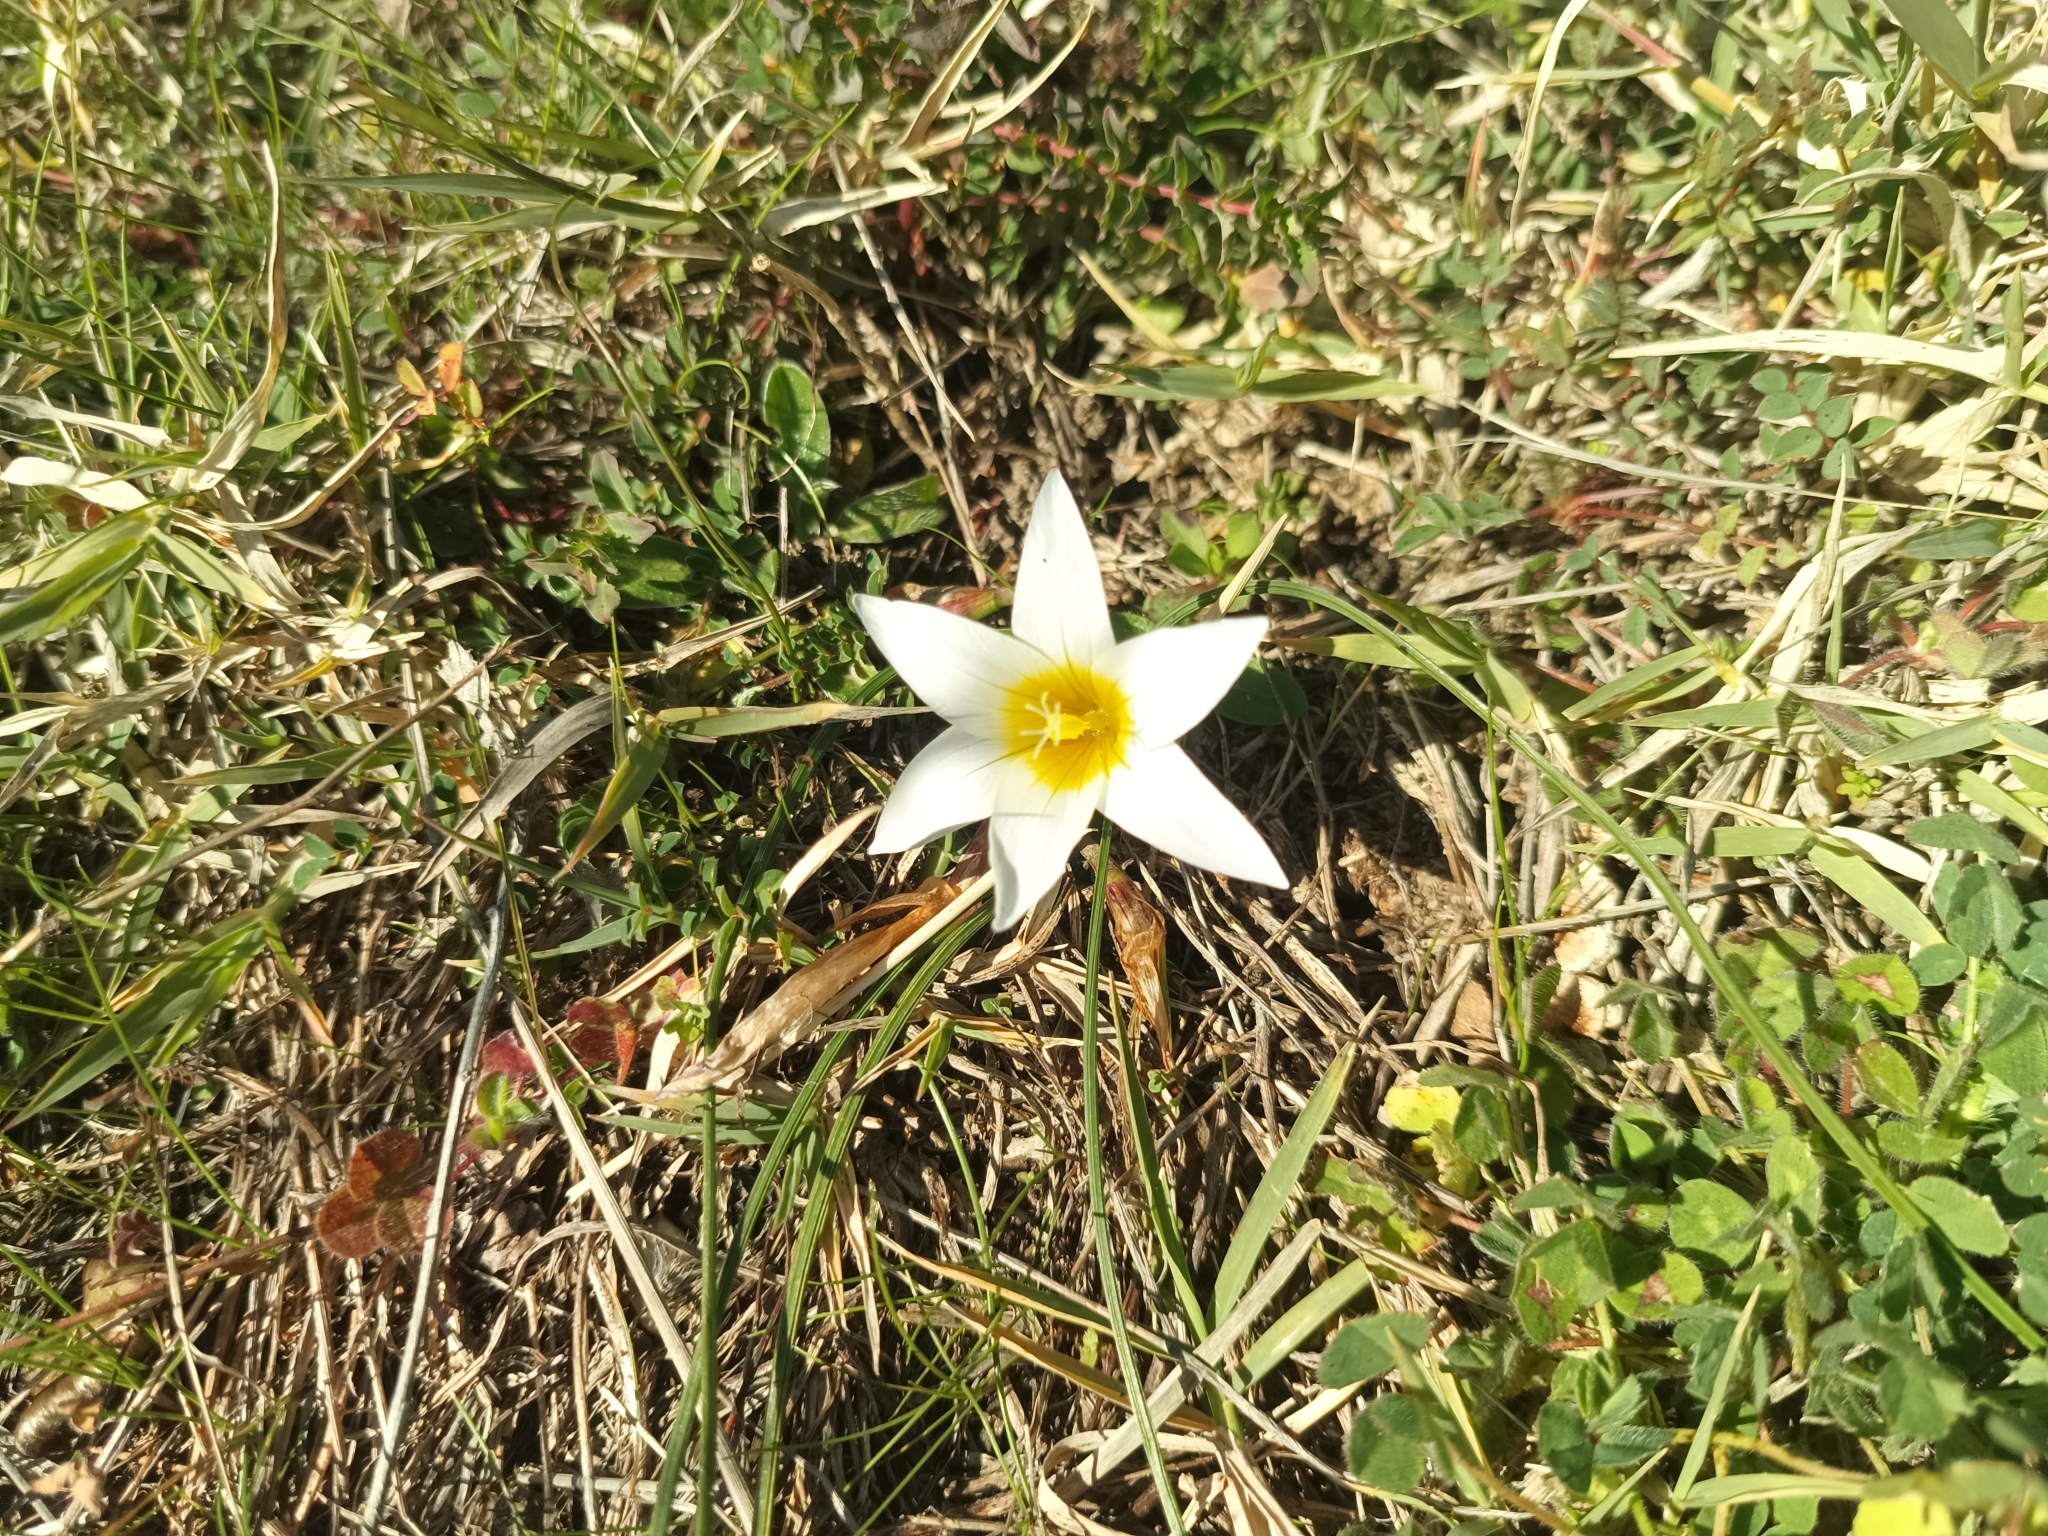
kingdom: Plantae
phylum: Tracheophyta
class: Liliopsida
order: Asparagales
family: Iridaceae
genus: Romulea
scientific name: Romulea bulbocodium
